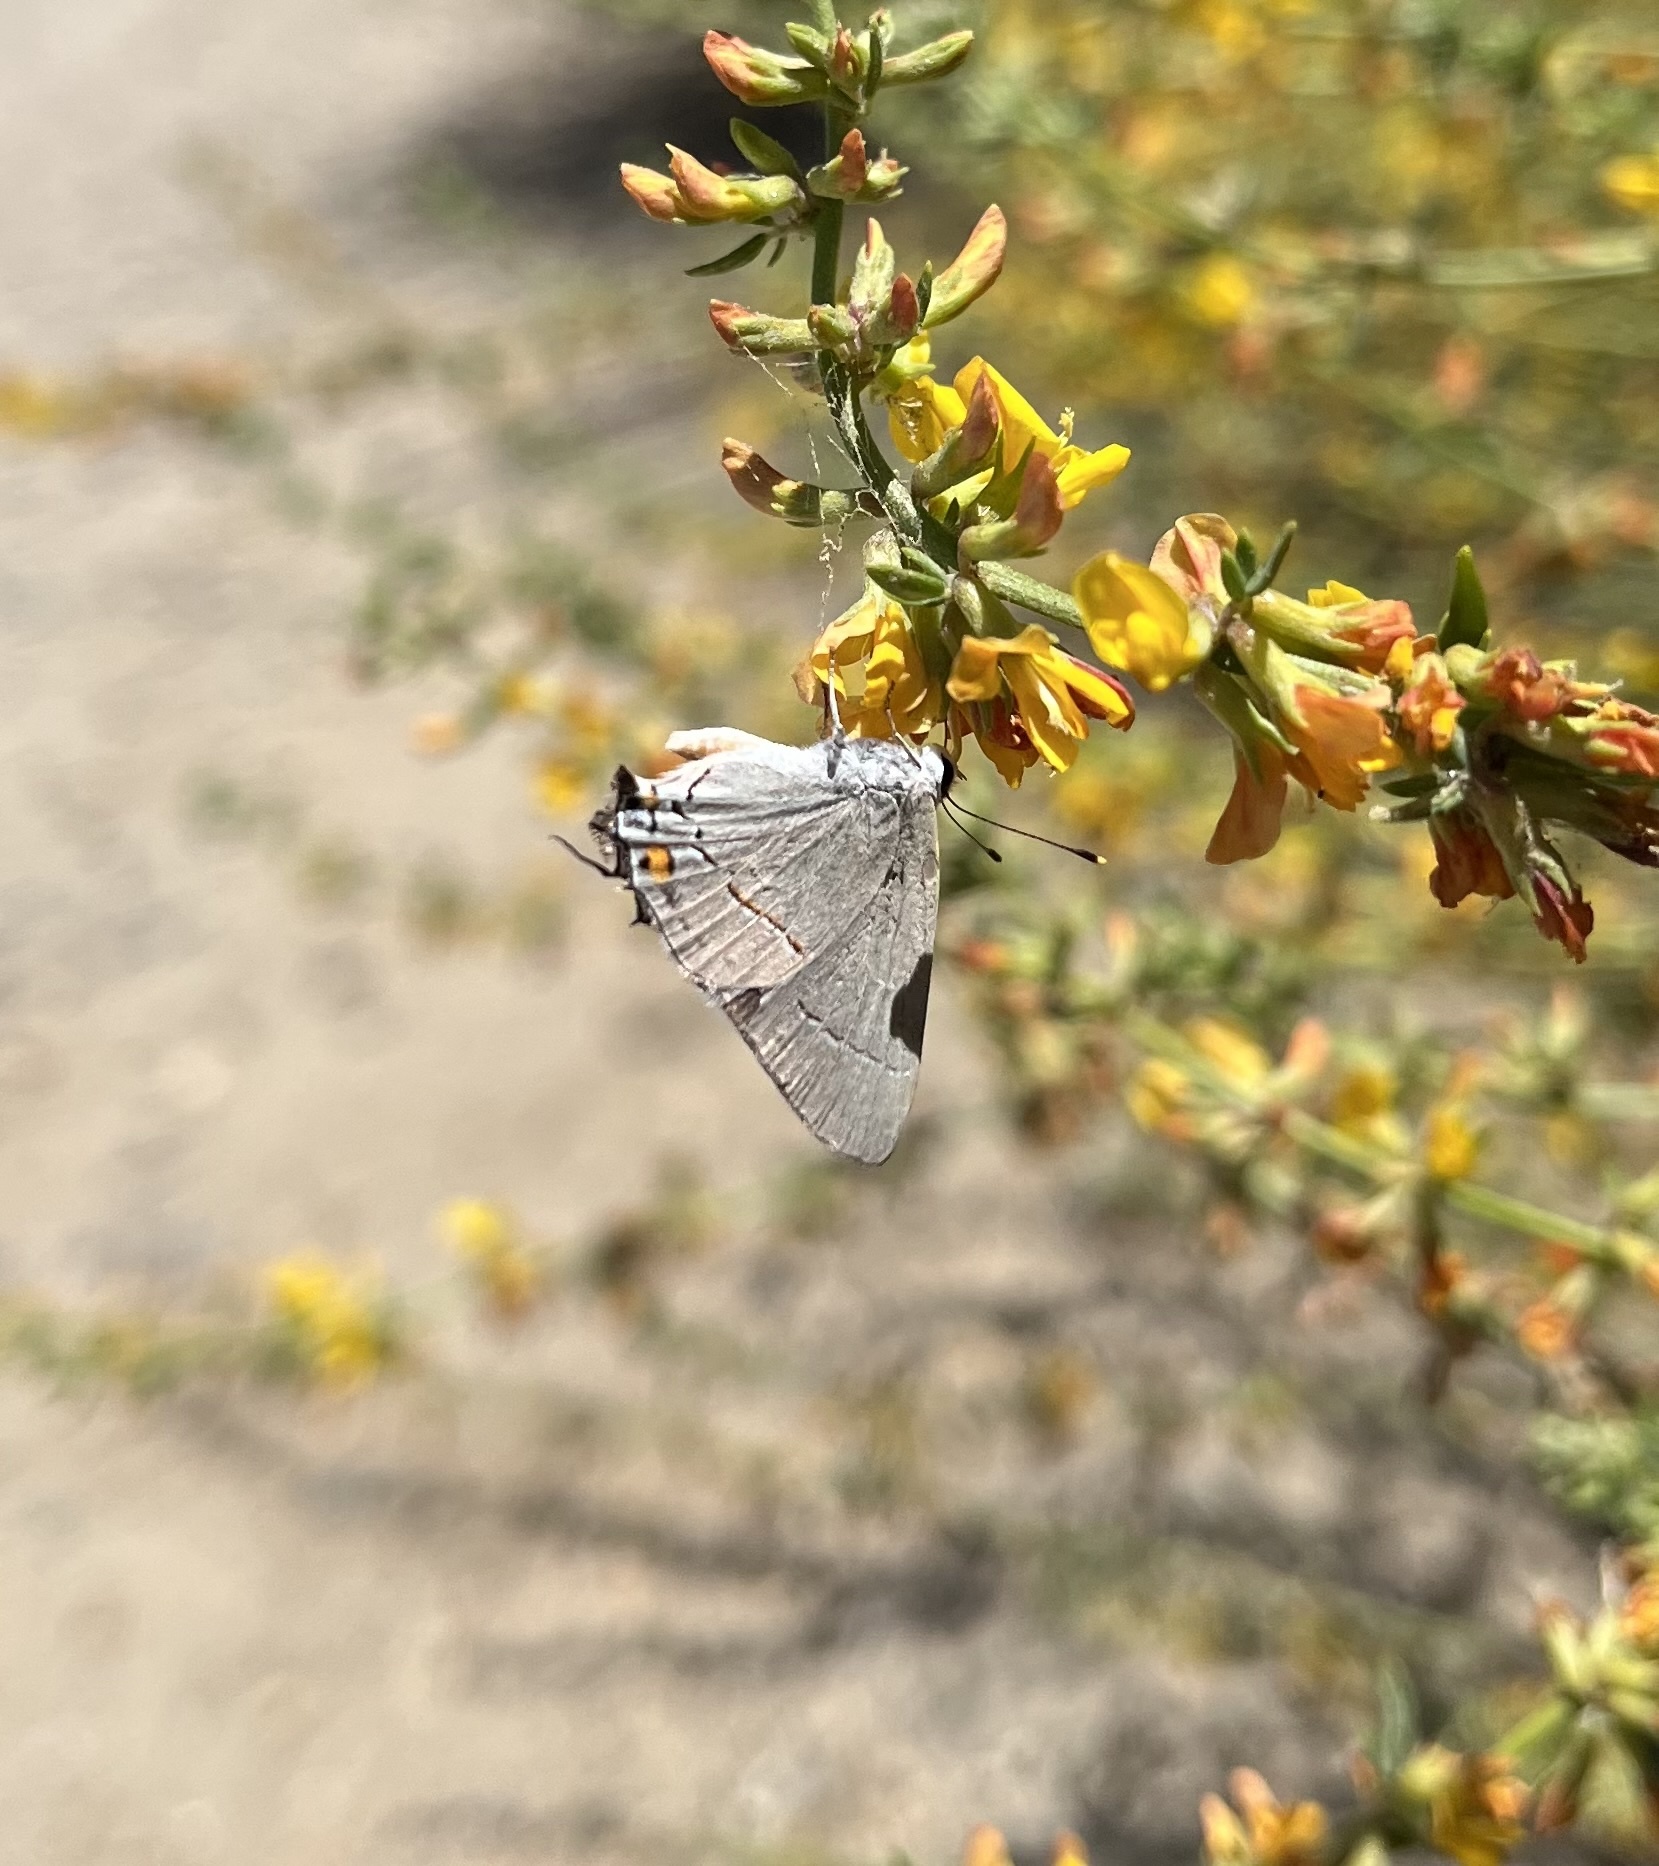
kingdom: Animalia
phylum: Arthropoda
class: Insecta
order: Lepidoptera
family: Lycaenidae
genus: Strymon
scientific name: Strymon melinus
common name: Gray hairstreak
